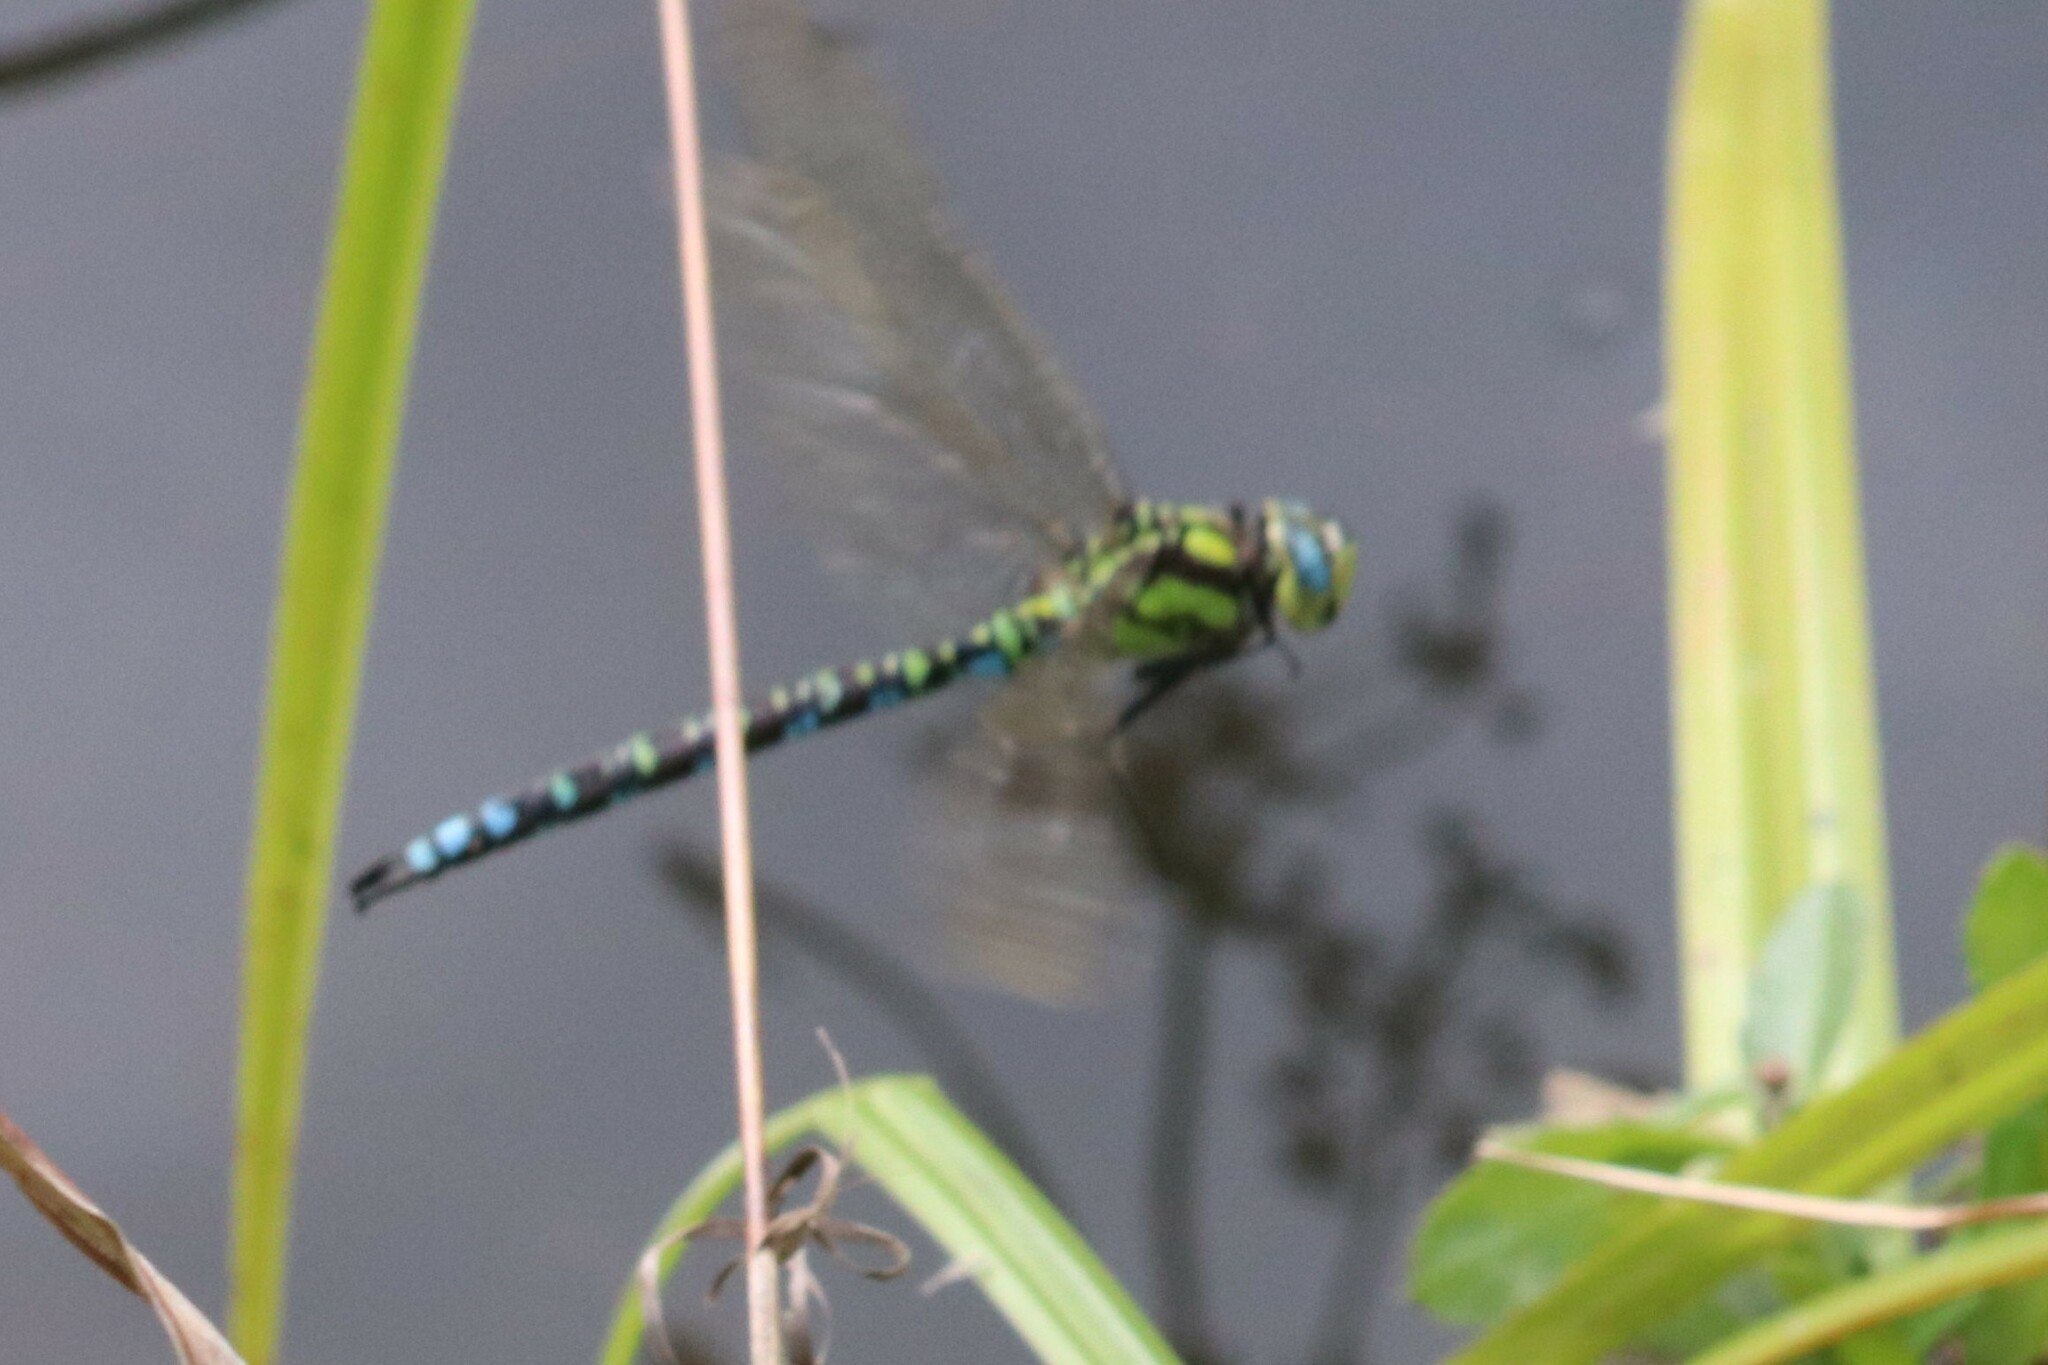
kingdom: Animalia
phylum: Arthropoda
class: Insecta
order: Odonata
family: Aeshnidae
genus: Aeshna
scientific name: Aeshna cyanea
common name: Southern hawker
